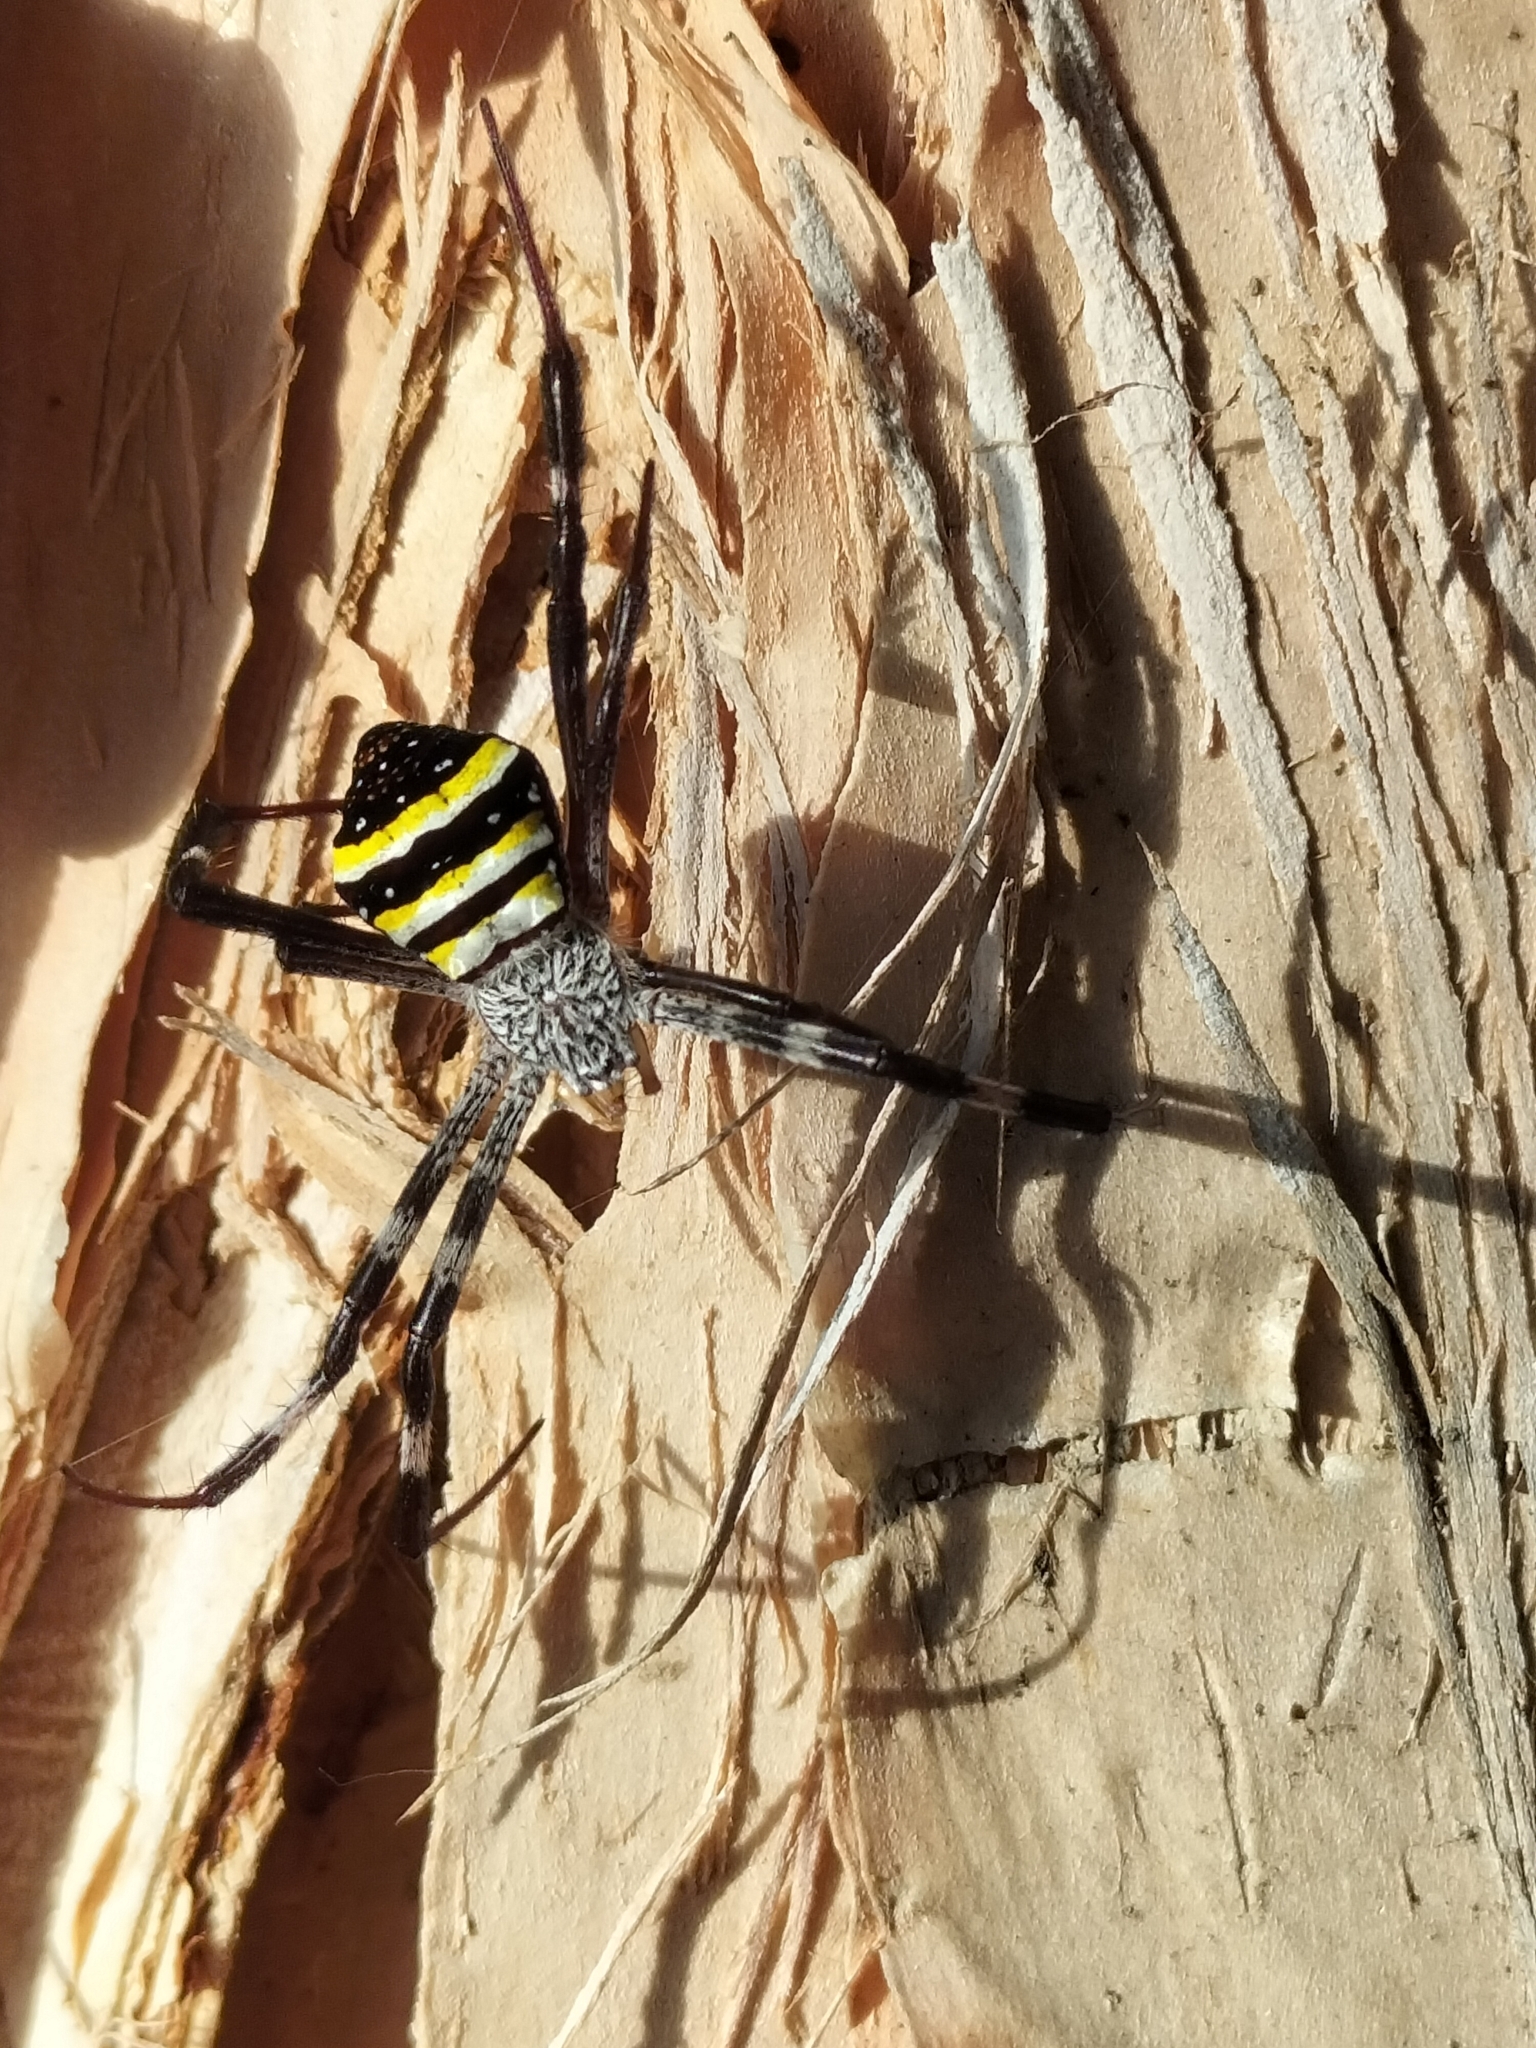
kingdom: Animalia
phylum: Arthropoda
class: Arachnida
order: Araneae
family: Araneidae
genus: Argiope
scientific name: Argiope aetherea
